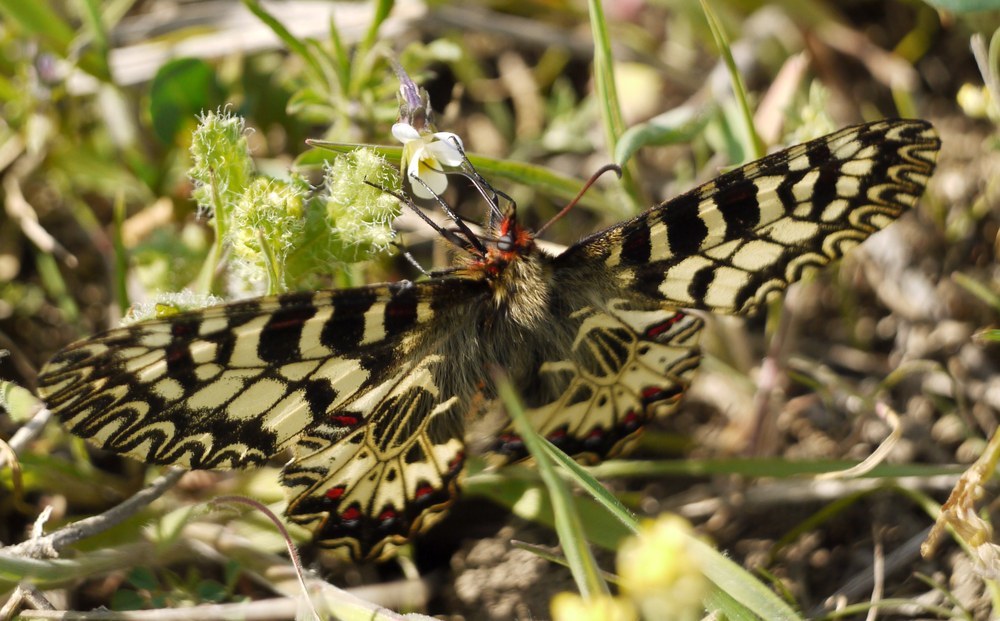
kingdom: Animalia
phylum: Arthropoda
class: Insecta
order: Lepidoptera
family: Papilionidae
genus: Zerynthia
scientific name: Zerynthia polyxena
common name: Southern festoon
